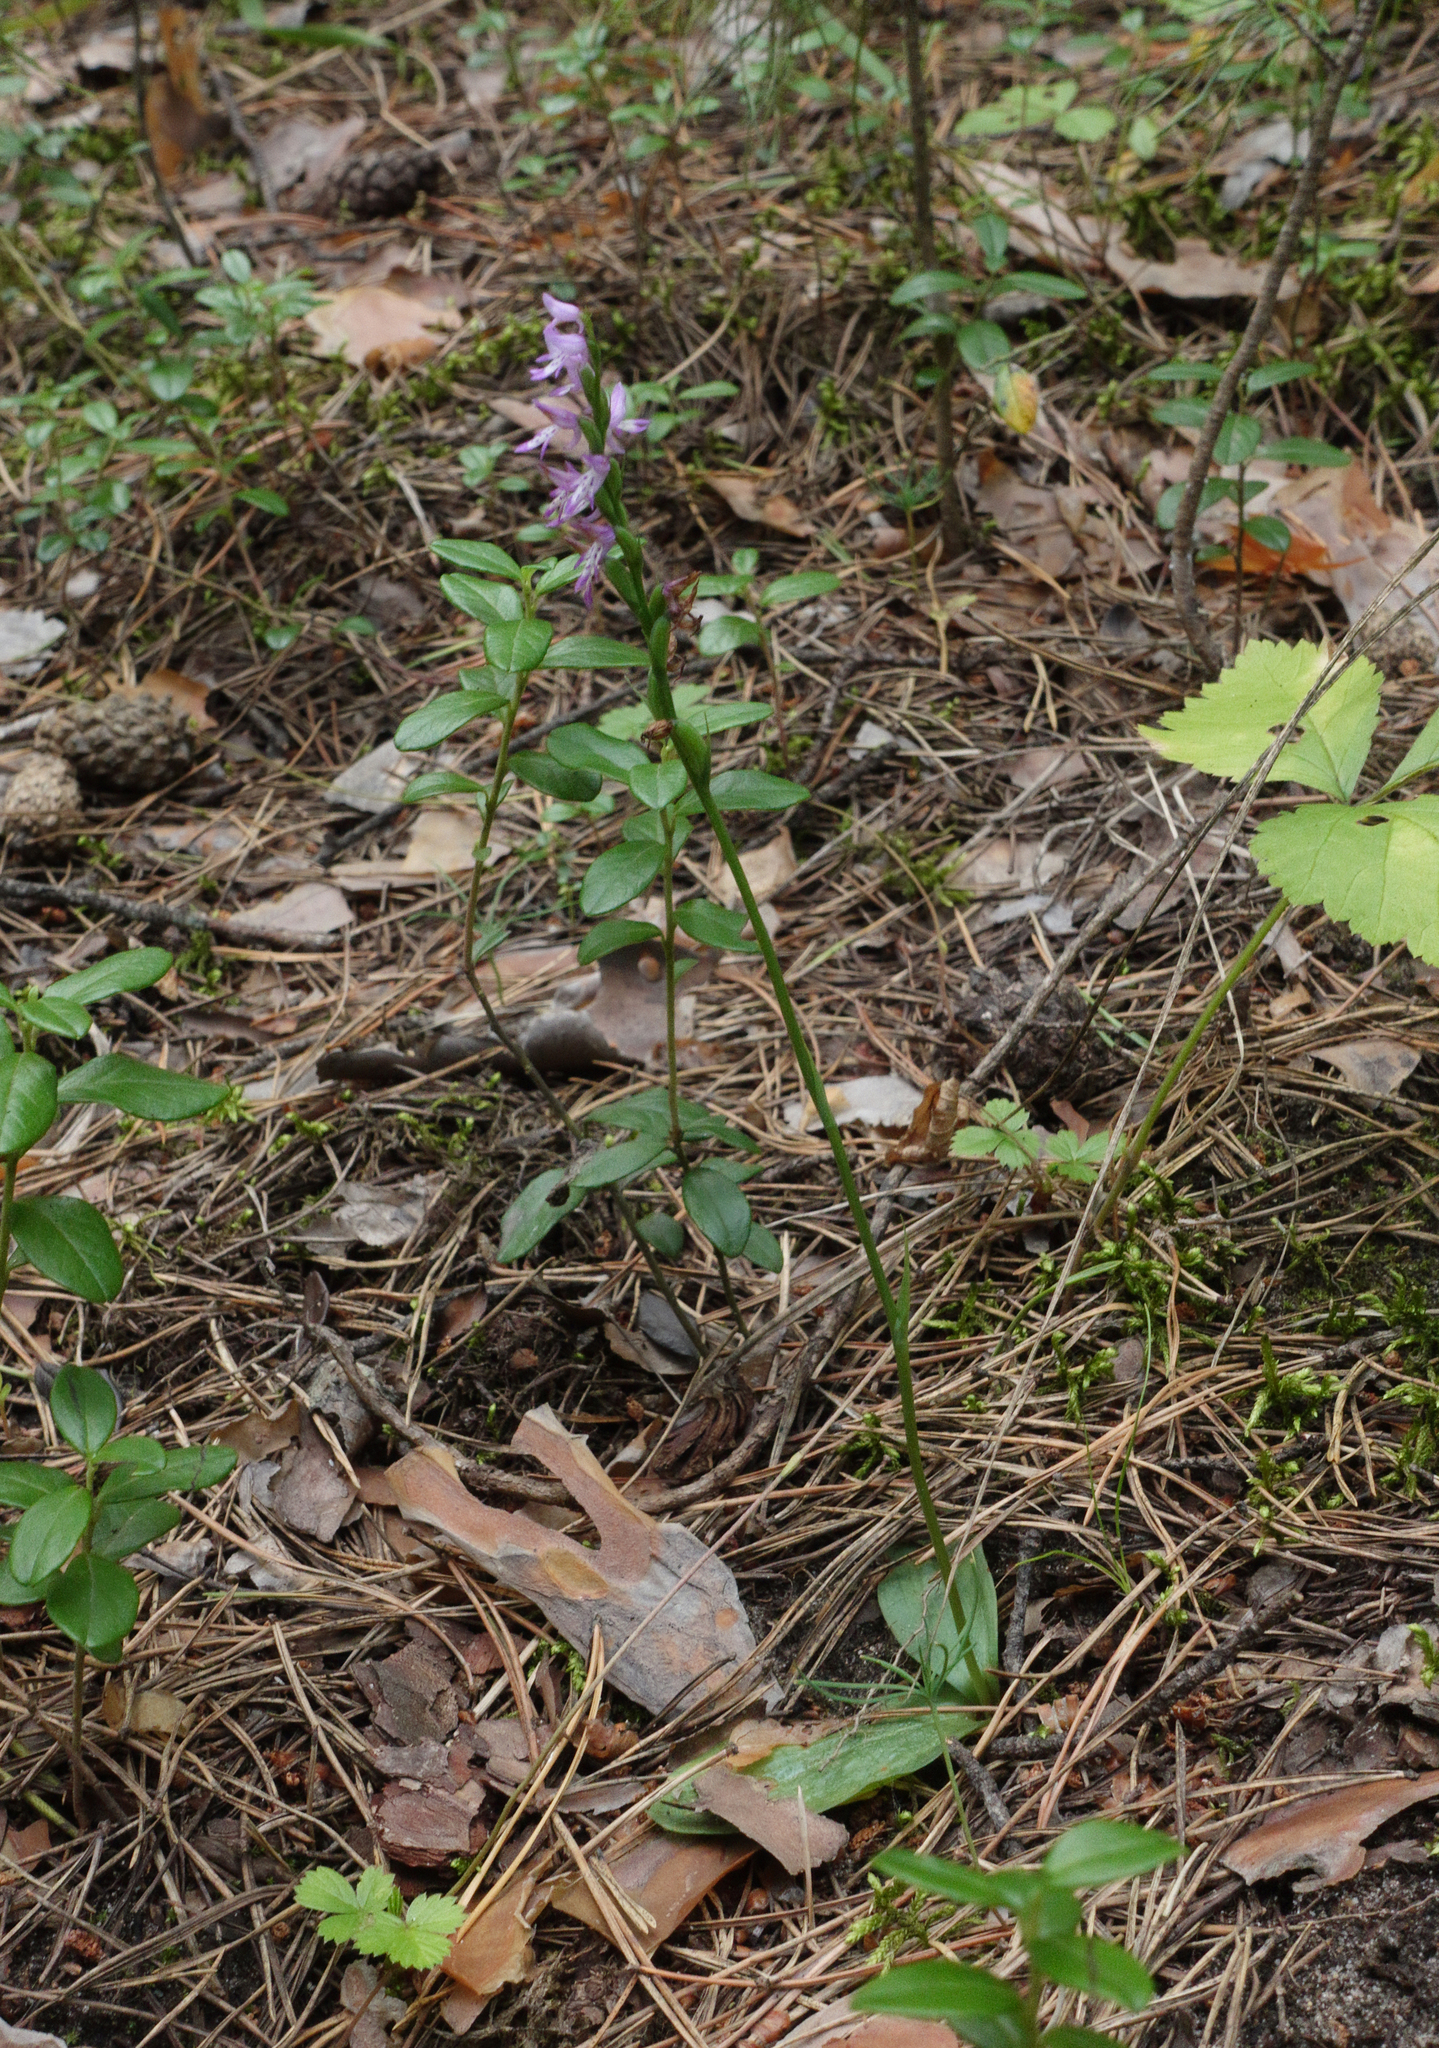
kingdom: Plantae
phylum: Tracheophyta
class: Liliopsida
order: Asparagales
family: Orchidaceae
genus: Hemipilia
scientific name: Hemipilia cucullata
